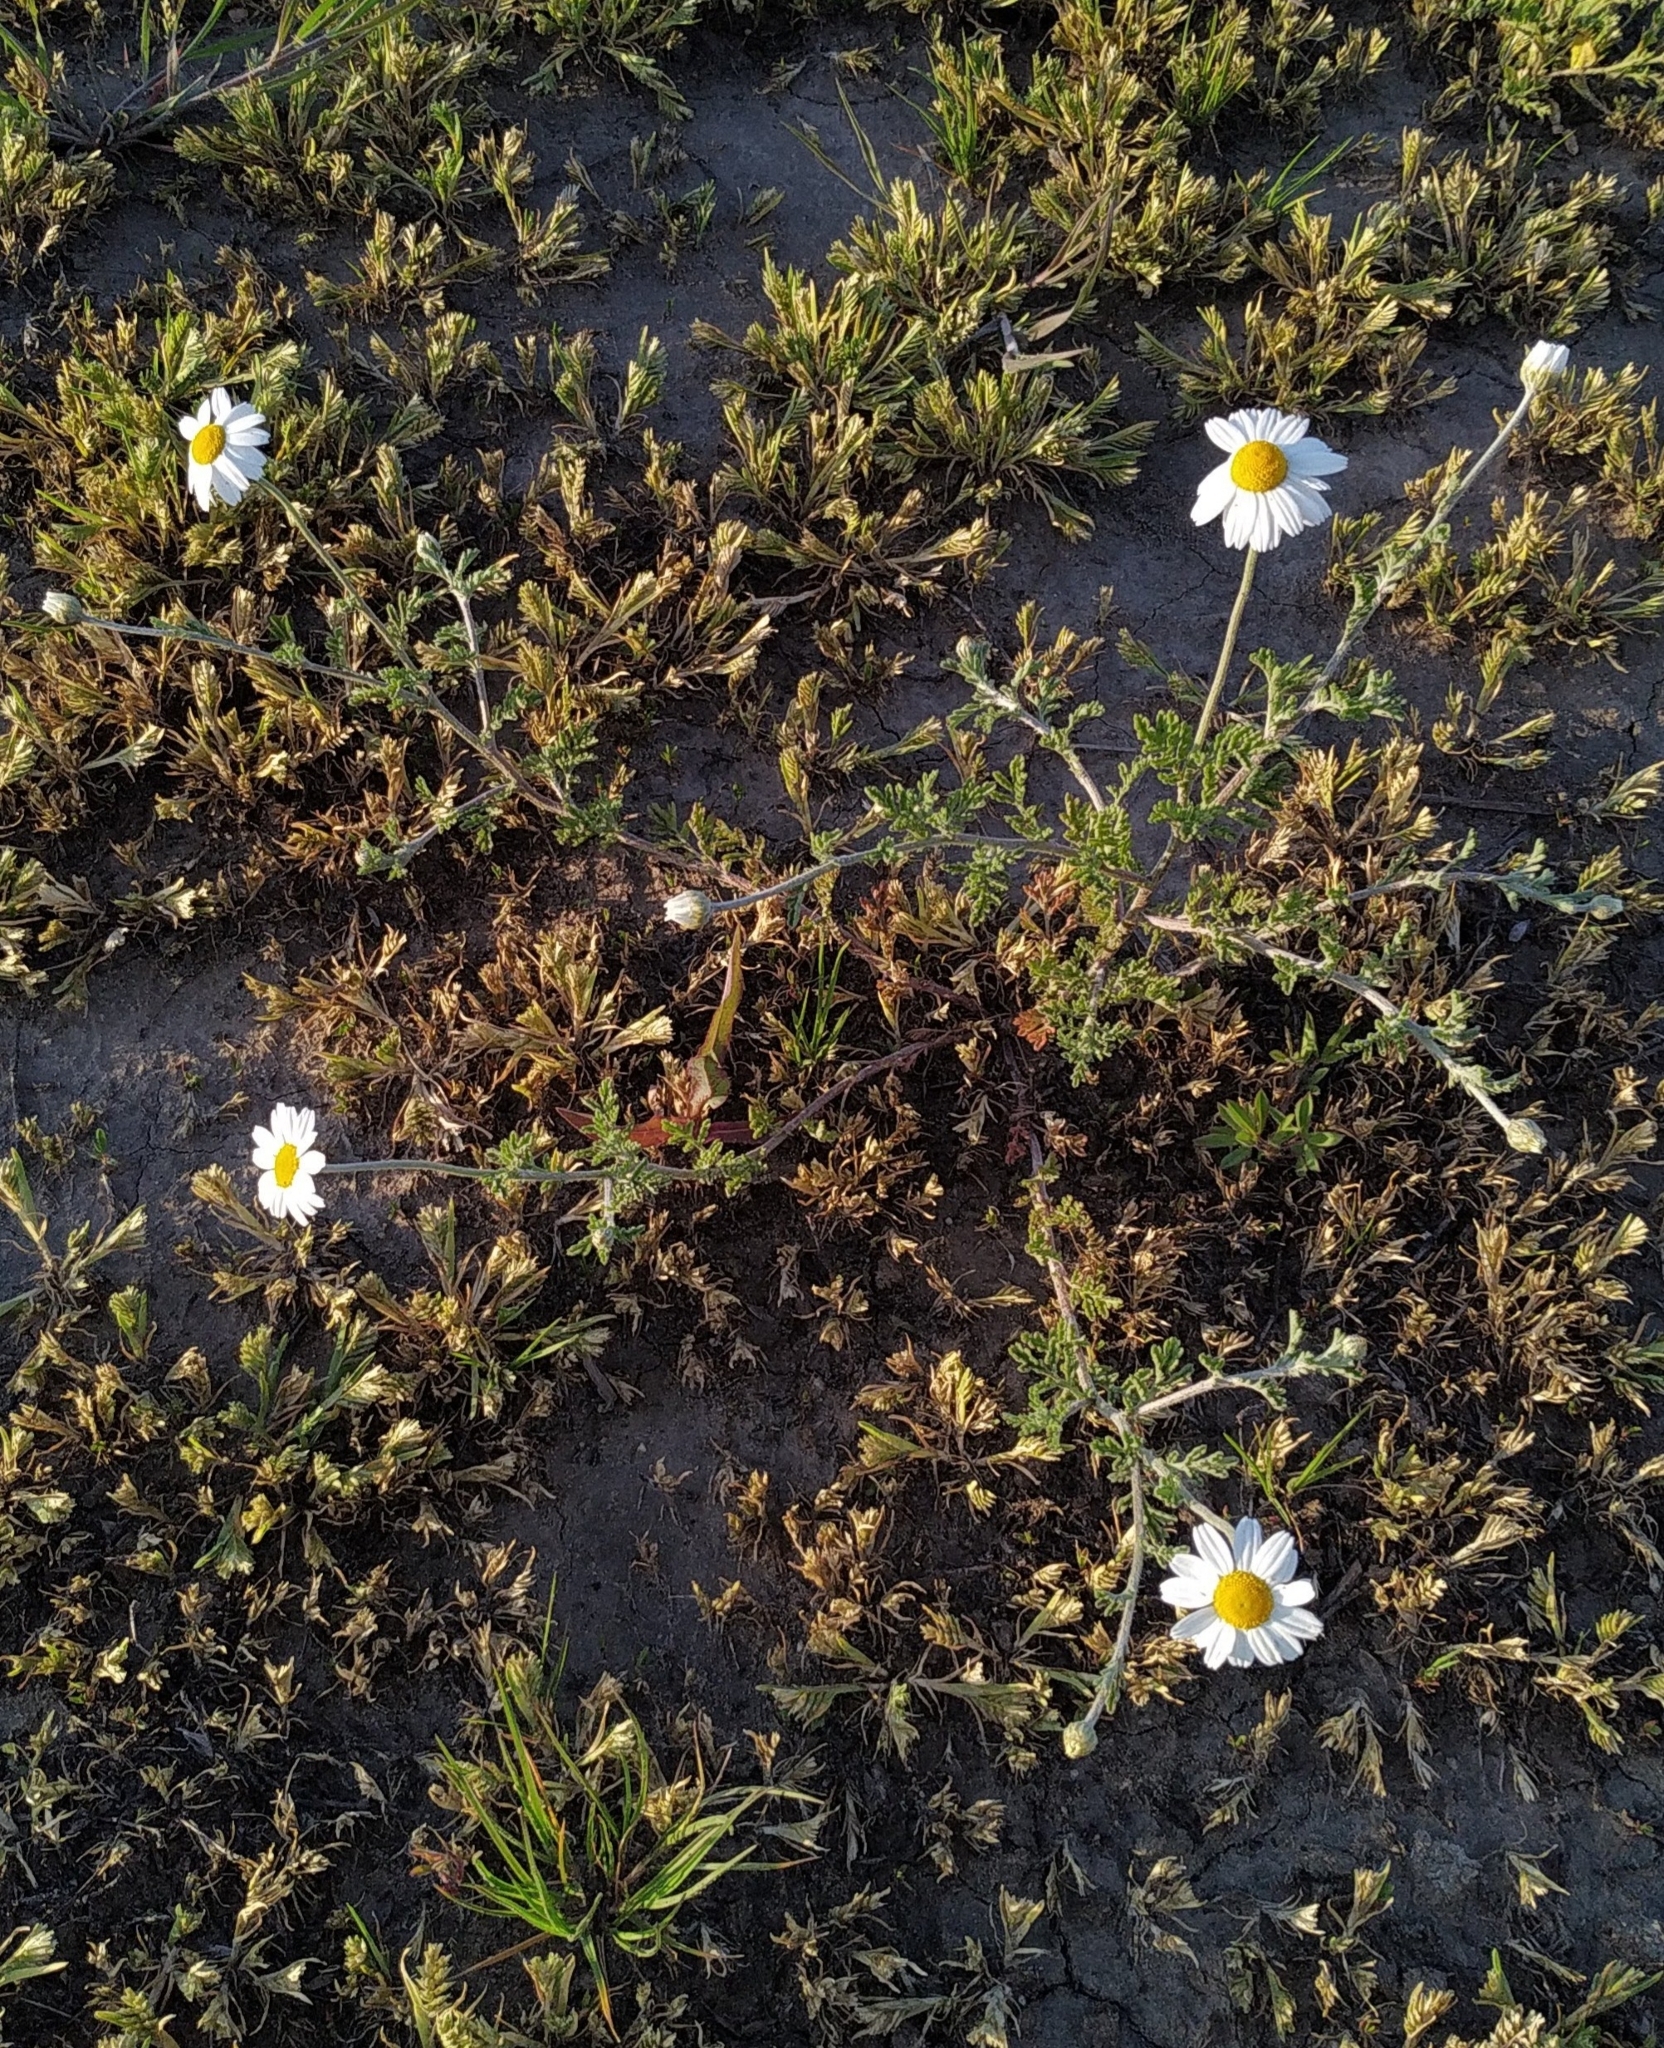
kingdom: Plantae
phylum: Tracheophyta
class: Magnoliopsida
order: Asterales
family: Asteraceae
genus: Anthemis
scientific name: Anthemis ruthenica
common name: Eastern chamomile
